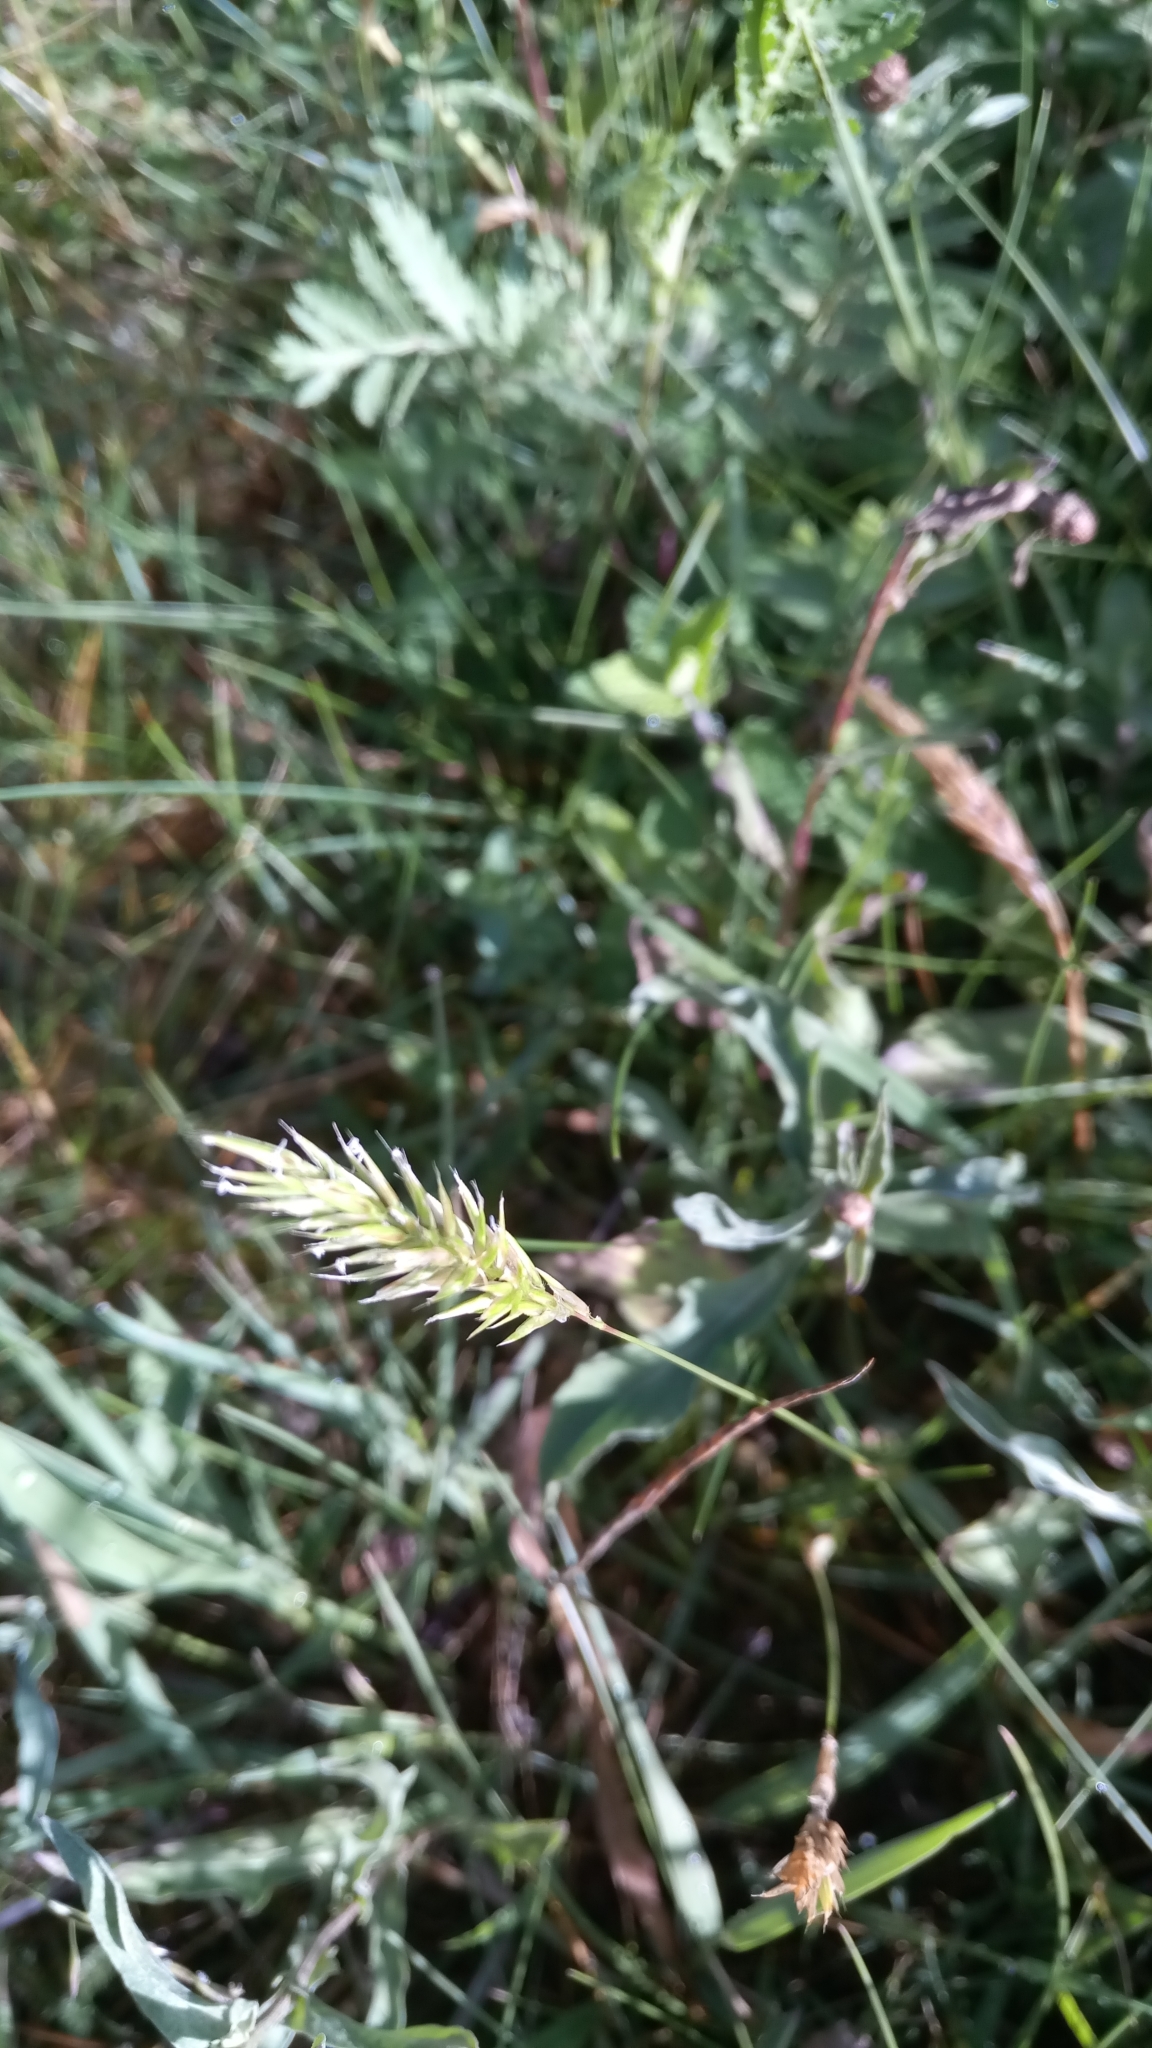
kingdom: Plantae
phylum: Tracheophyta
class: Liliopsida
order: Poales
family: Poaceae
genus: Anthoxanthum
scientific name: Anthoxanthum odoratum
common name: Sweet vernalgrass
